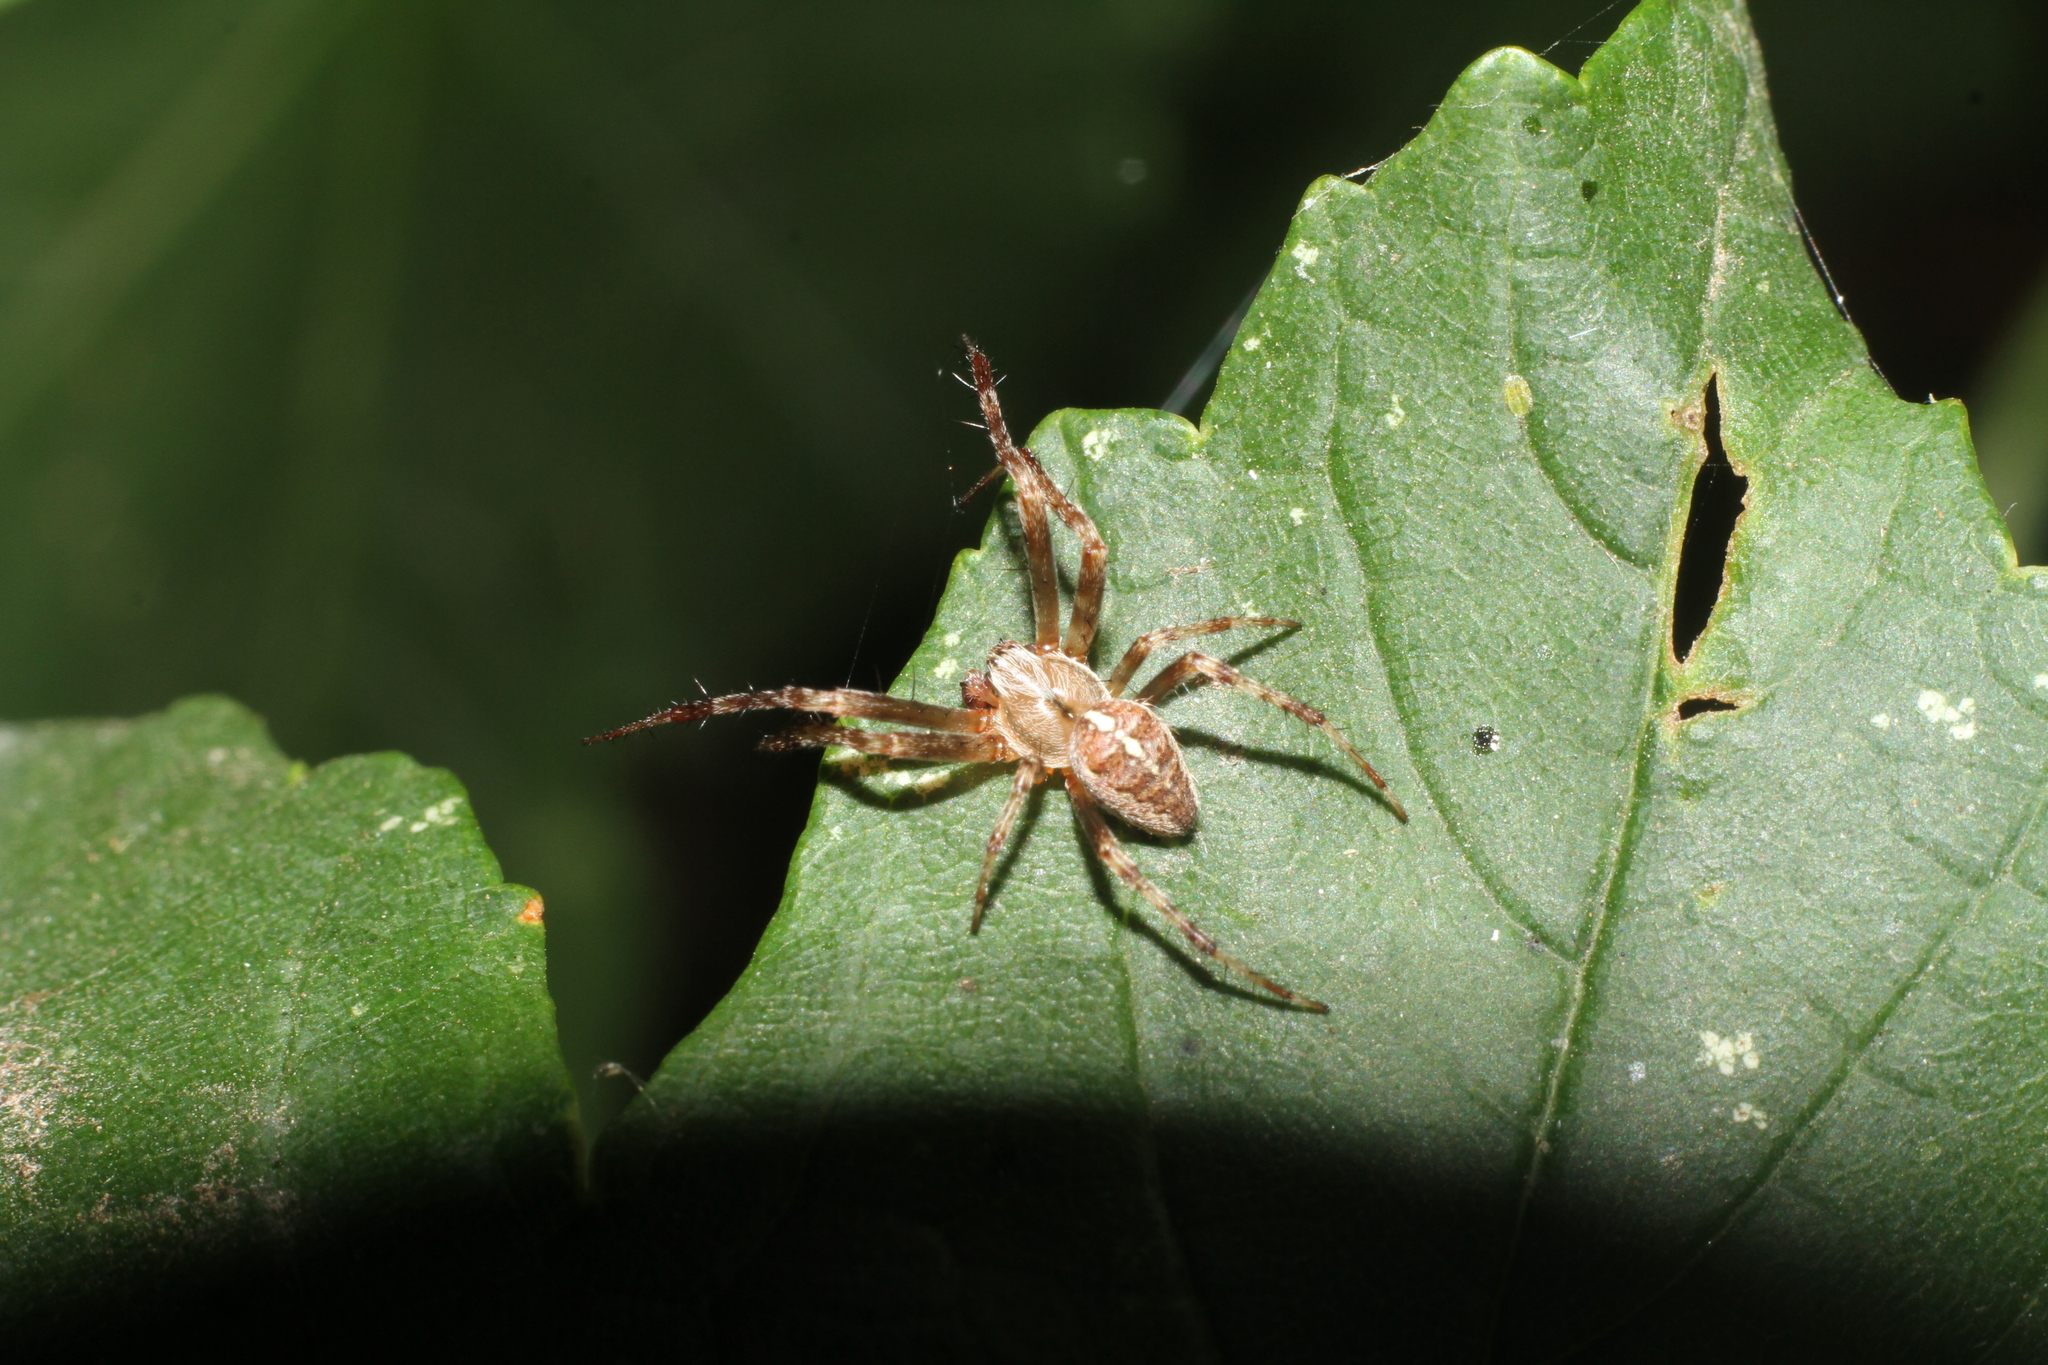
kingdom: Animalia
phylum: Arthropoda
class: Arachnida
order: Araneae
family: Araneidae
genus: Araneus
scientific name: Araneus diadematus
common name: Cross orbweaver
